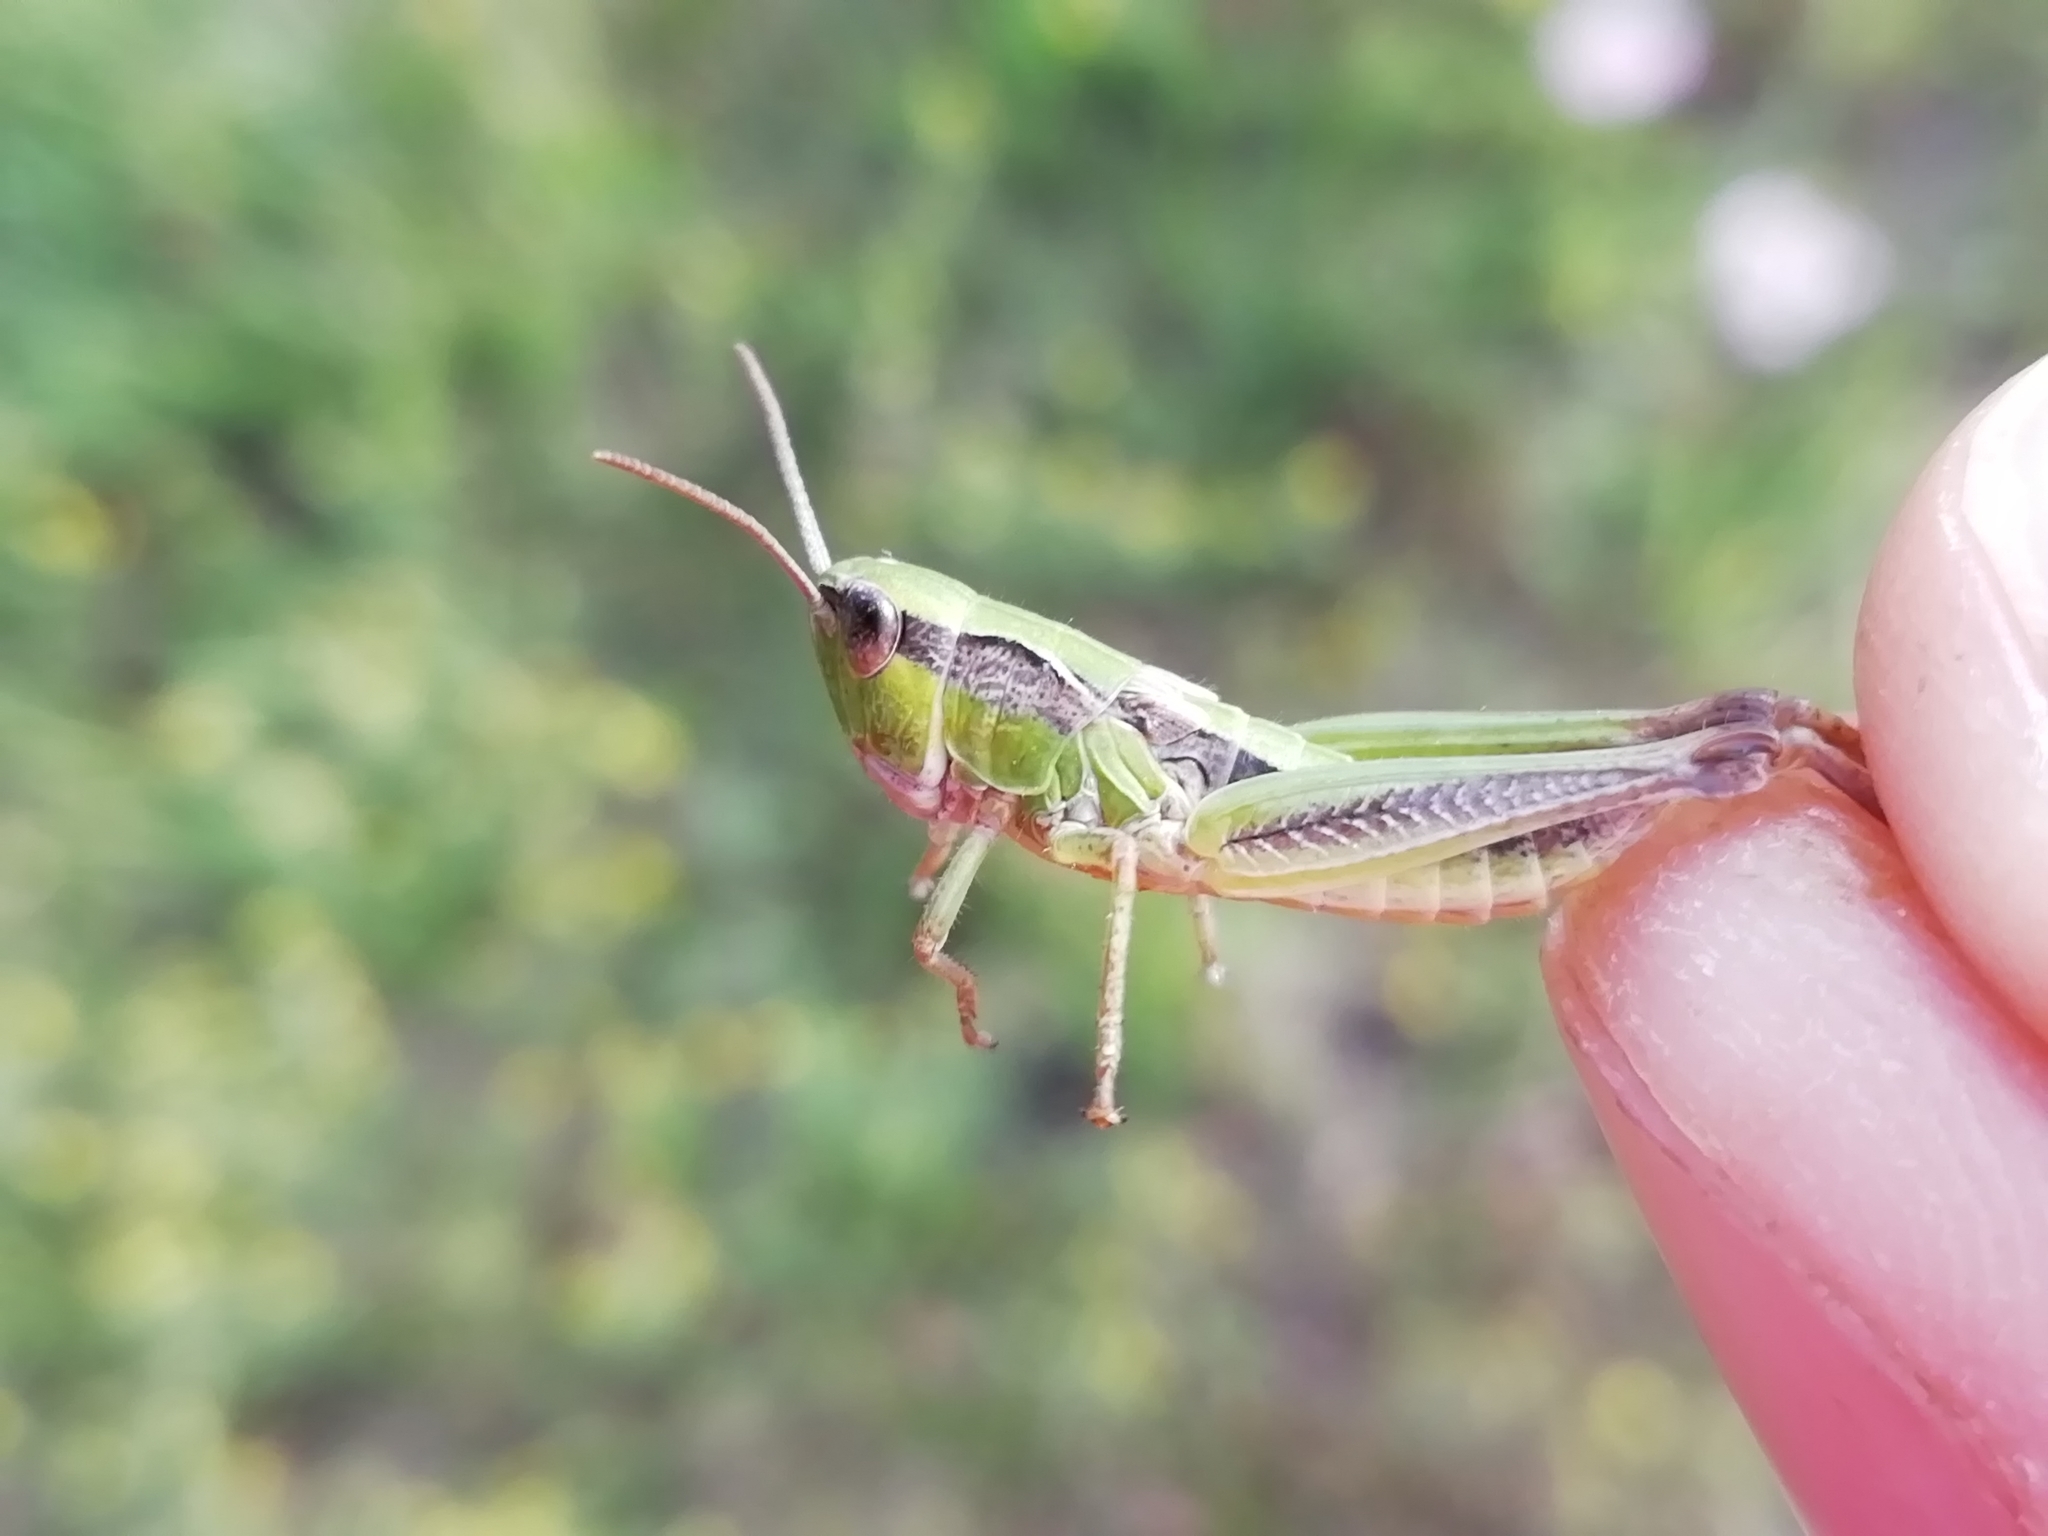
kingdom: Animalia
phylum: Arthropoda
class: Insecta
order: Orthoptera
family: Acrididae
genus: Chorthippus
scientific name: Chorthippus fallax
